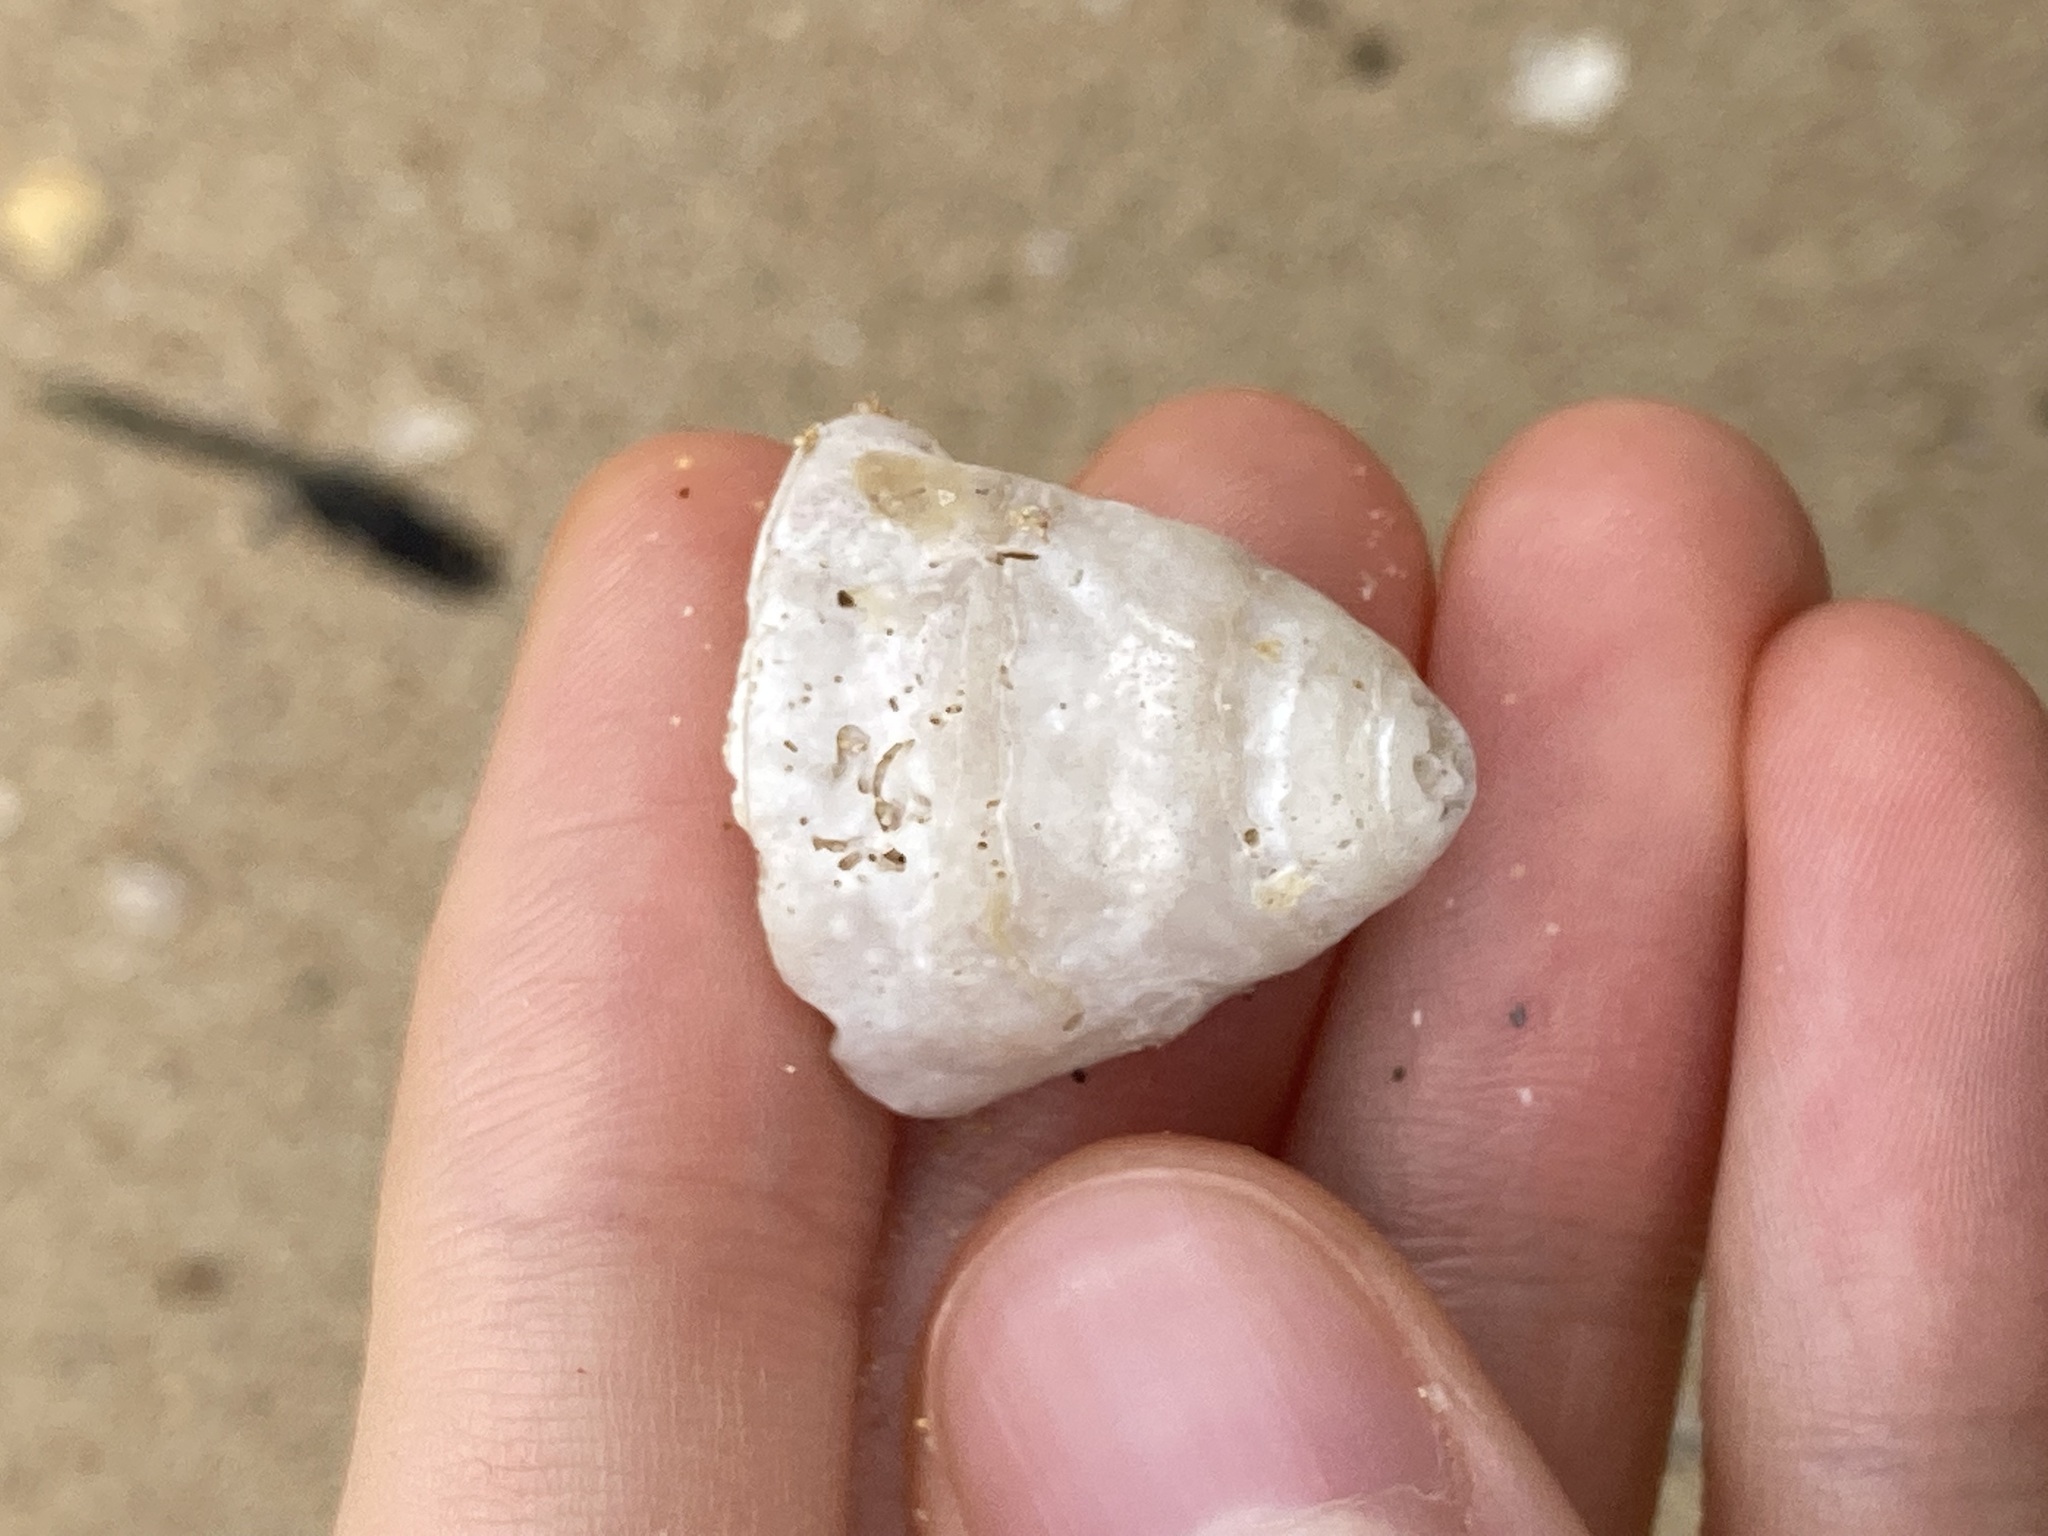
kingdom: Animalia
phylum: Mollusca
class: Gastropoda
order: Trochida
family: Turbinidae
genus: Astralium
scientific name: Astralium tentoriiforme
